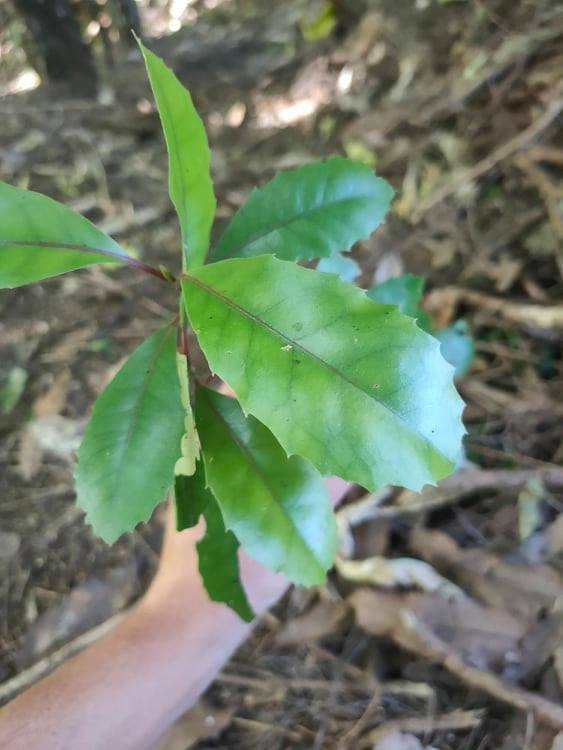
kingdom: Plantae
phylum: Tracheophyta
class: Magnoliopsida
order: Laurales
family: Monimiaceae
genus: Hedycarya
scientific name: Hedycarya arborea
